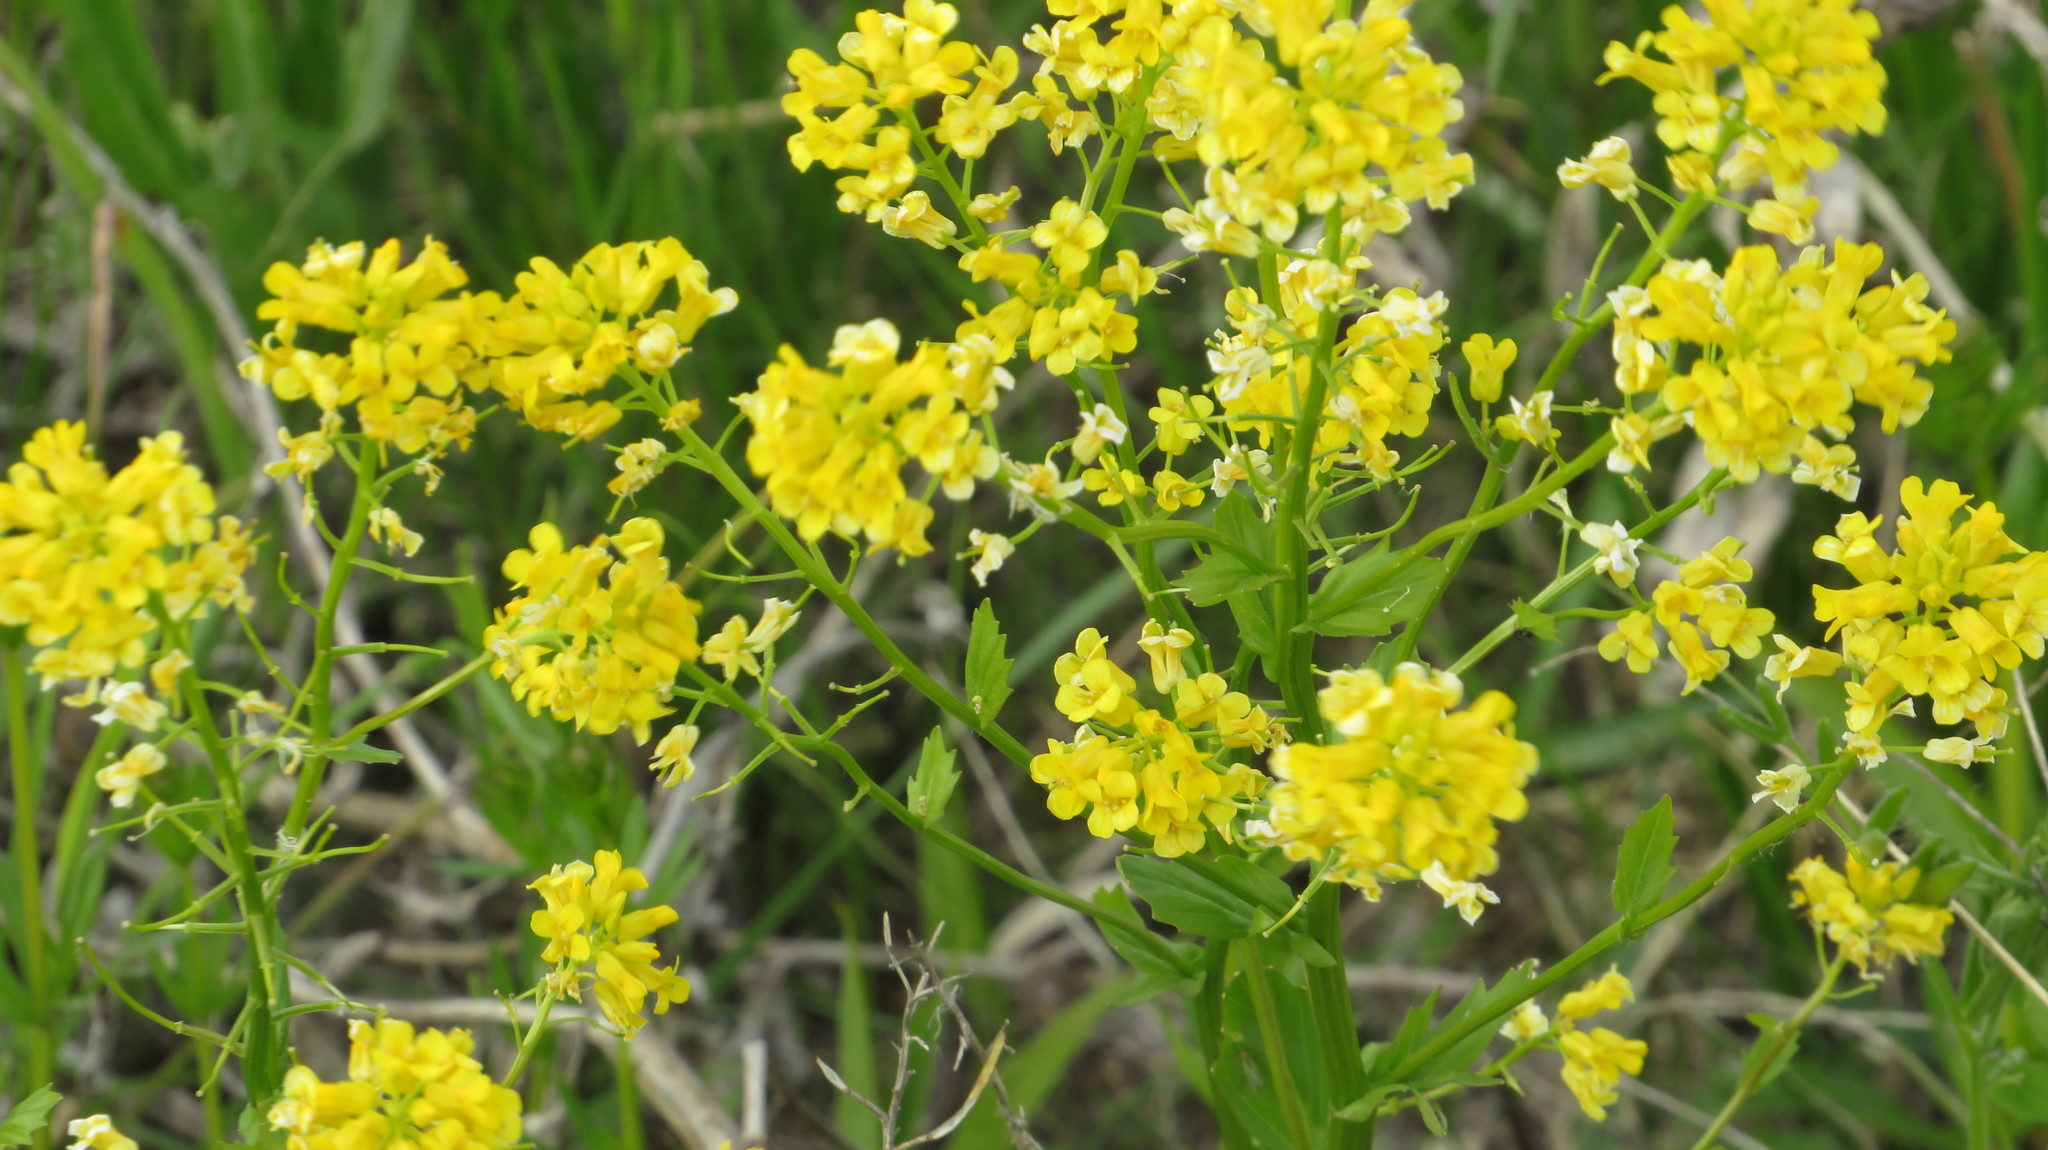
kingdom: Plantae
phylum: Tracheophyta
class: Magnoliopsida
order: Brassicales
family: Brassicaceae
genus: Barbarea
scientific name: Barbarea vulgaris
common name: Cressy-greens
